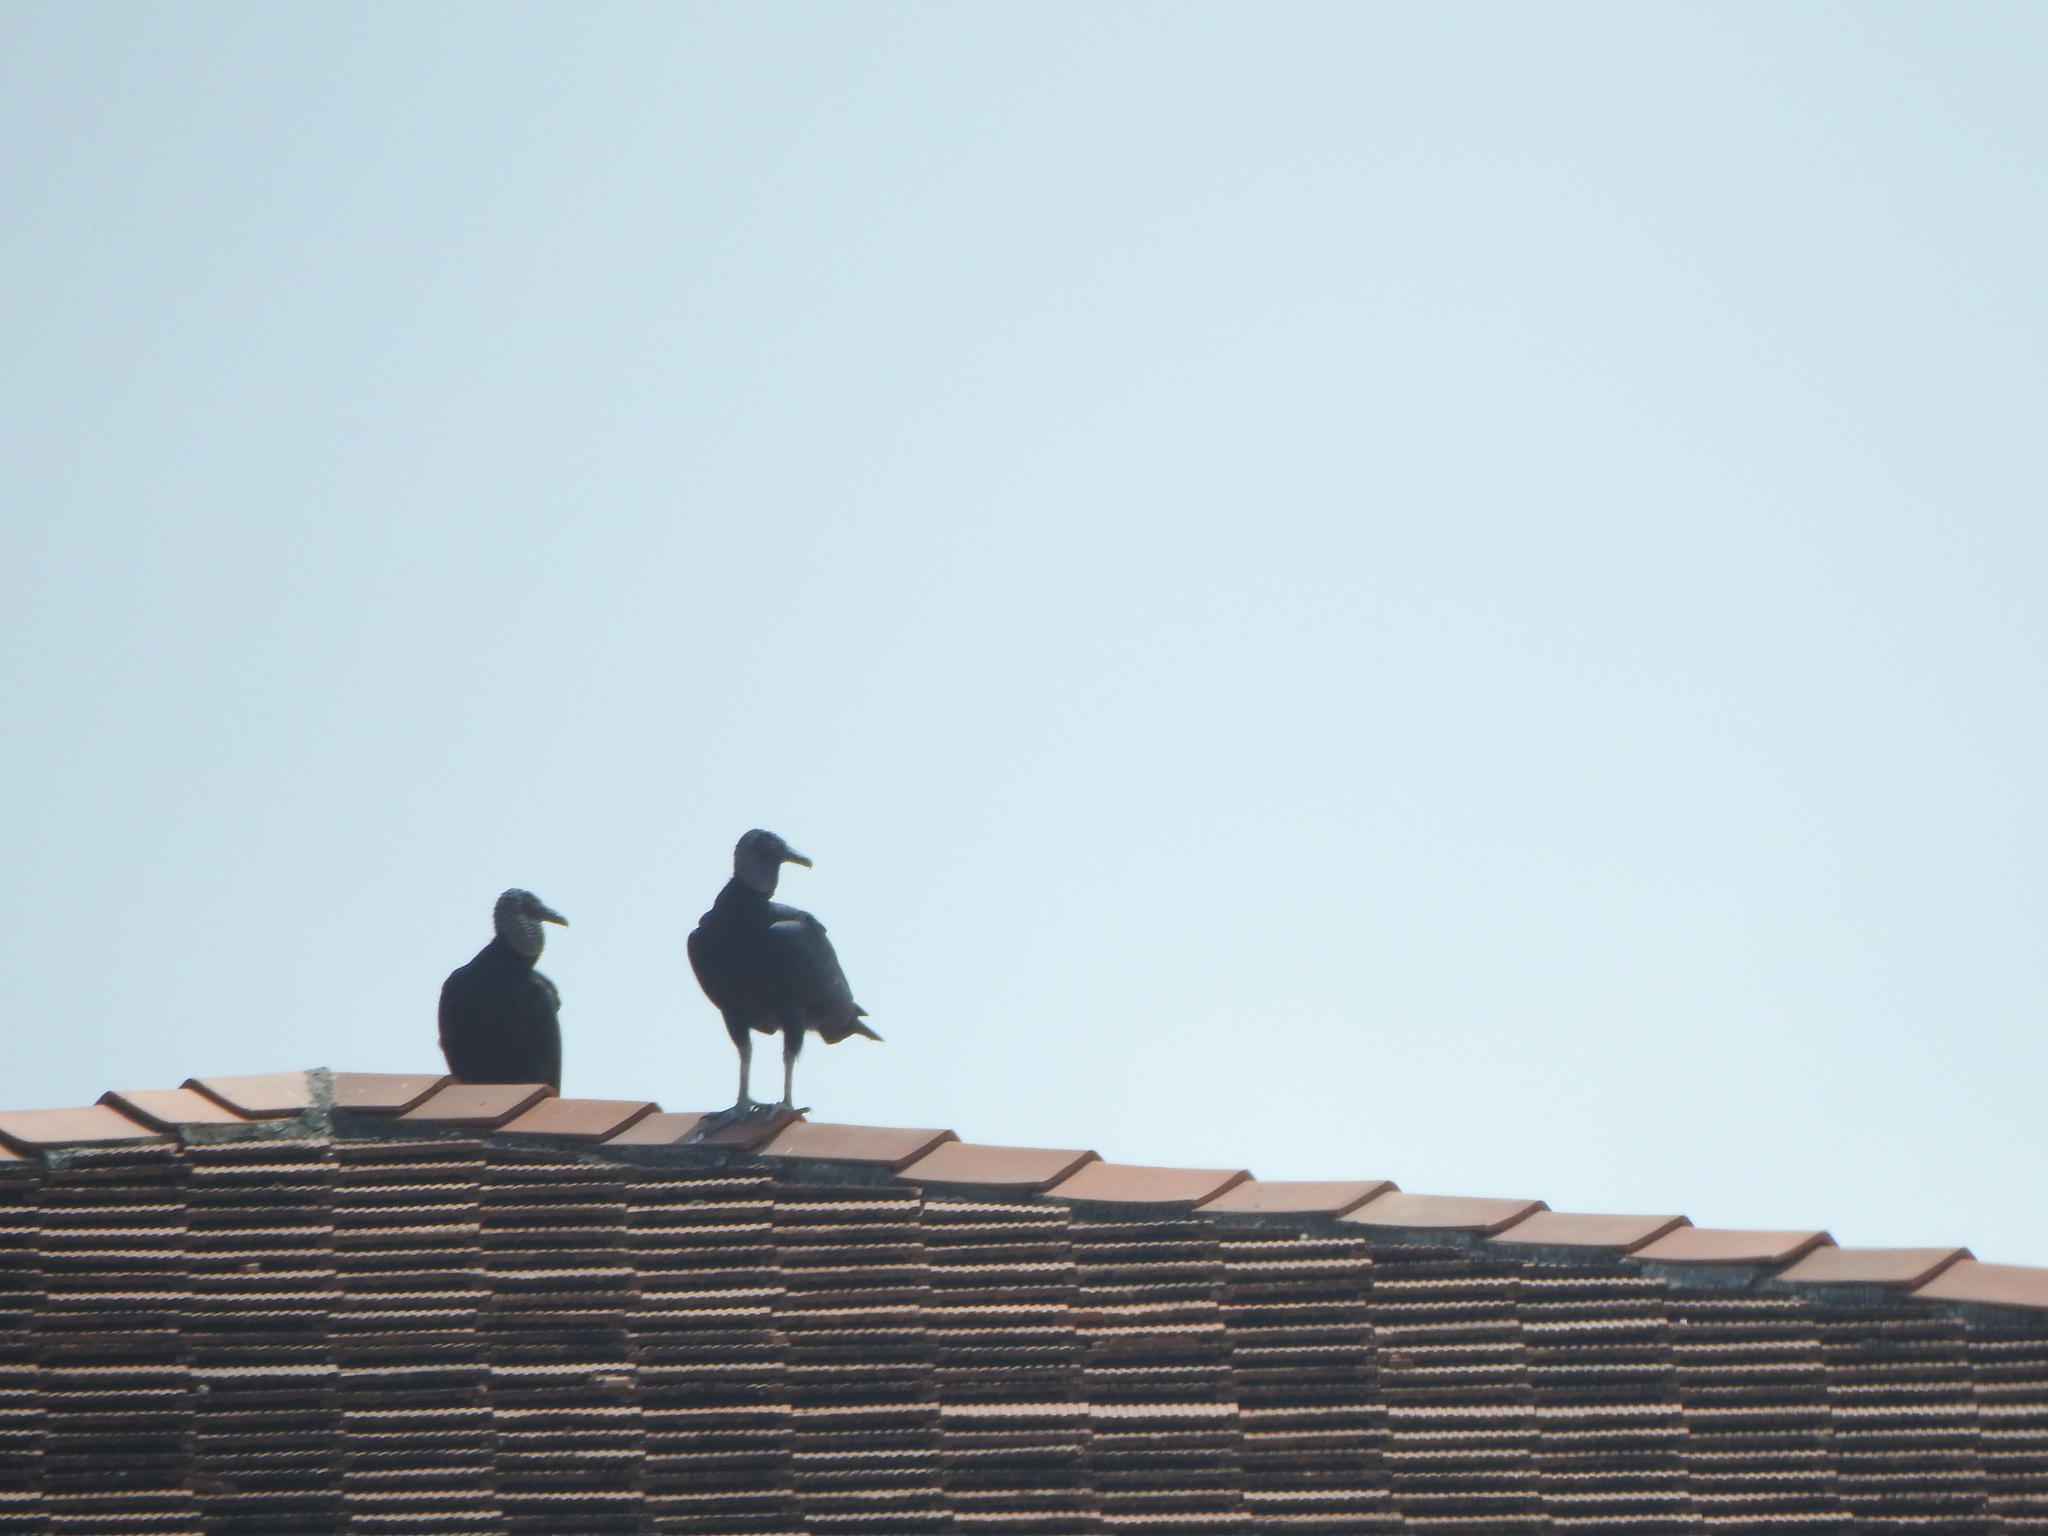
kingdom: Animalia
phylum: Chordata
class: Aves
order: Accipitriformes
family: Cathartidae
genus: Coragyps
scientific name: Coragyps atratus
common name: Black vulture
